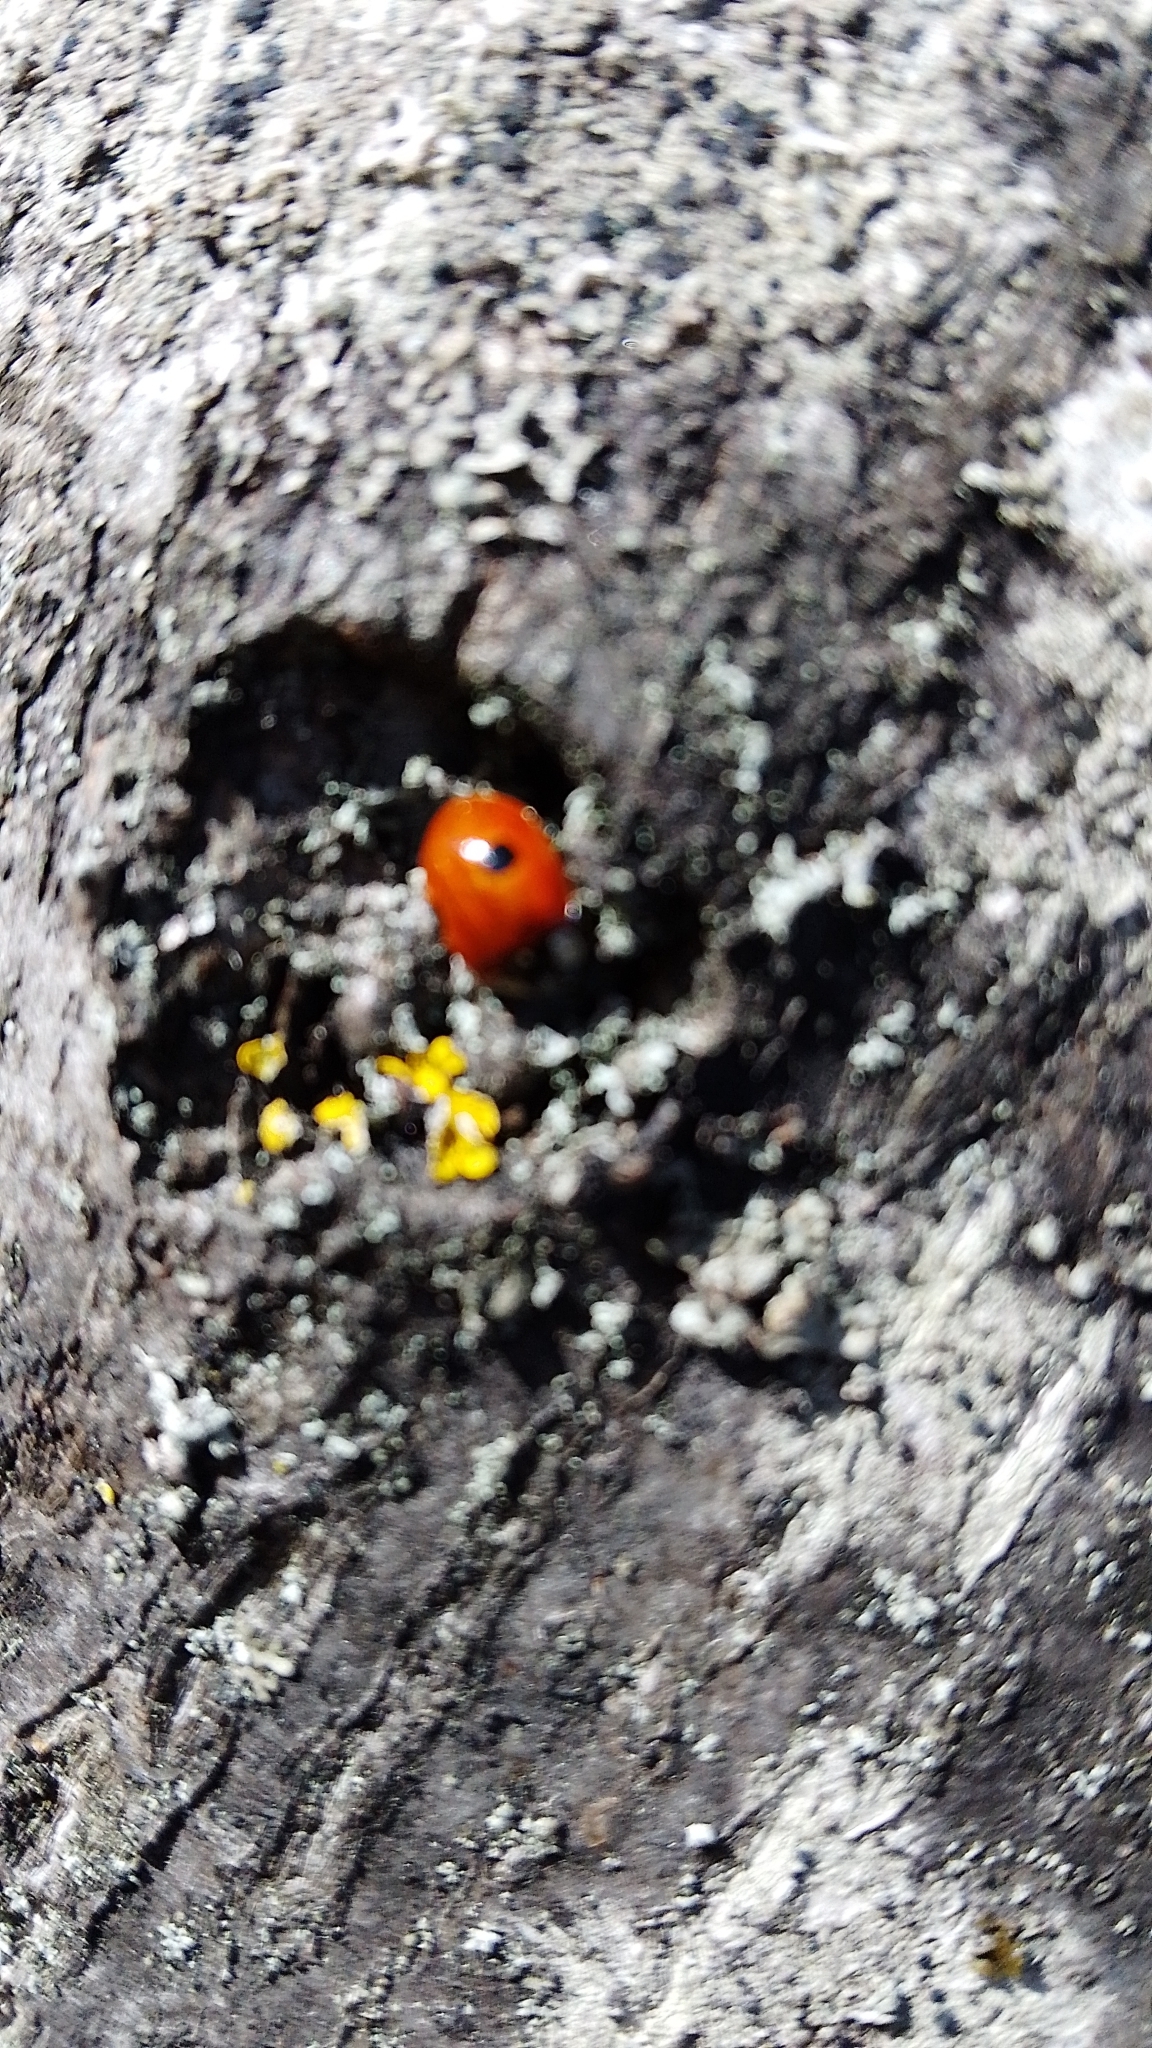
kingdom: Animalia
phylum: Arthropoda
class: Insecta
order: Coleoptera
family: Coccinellidae
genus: Adalia
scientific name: Adalia bipunctata
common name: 2-spot ladybird
